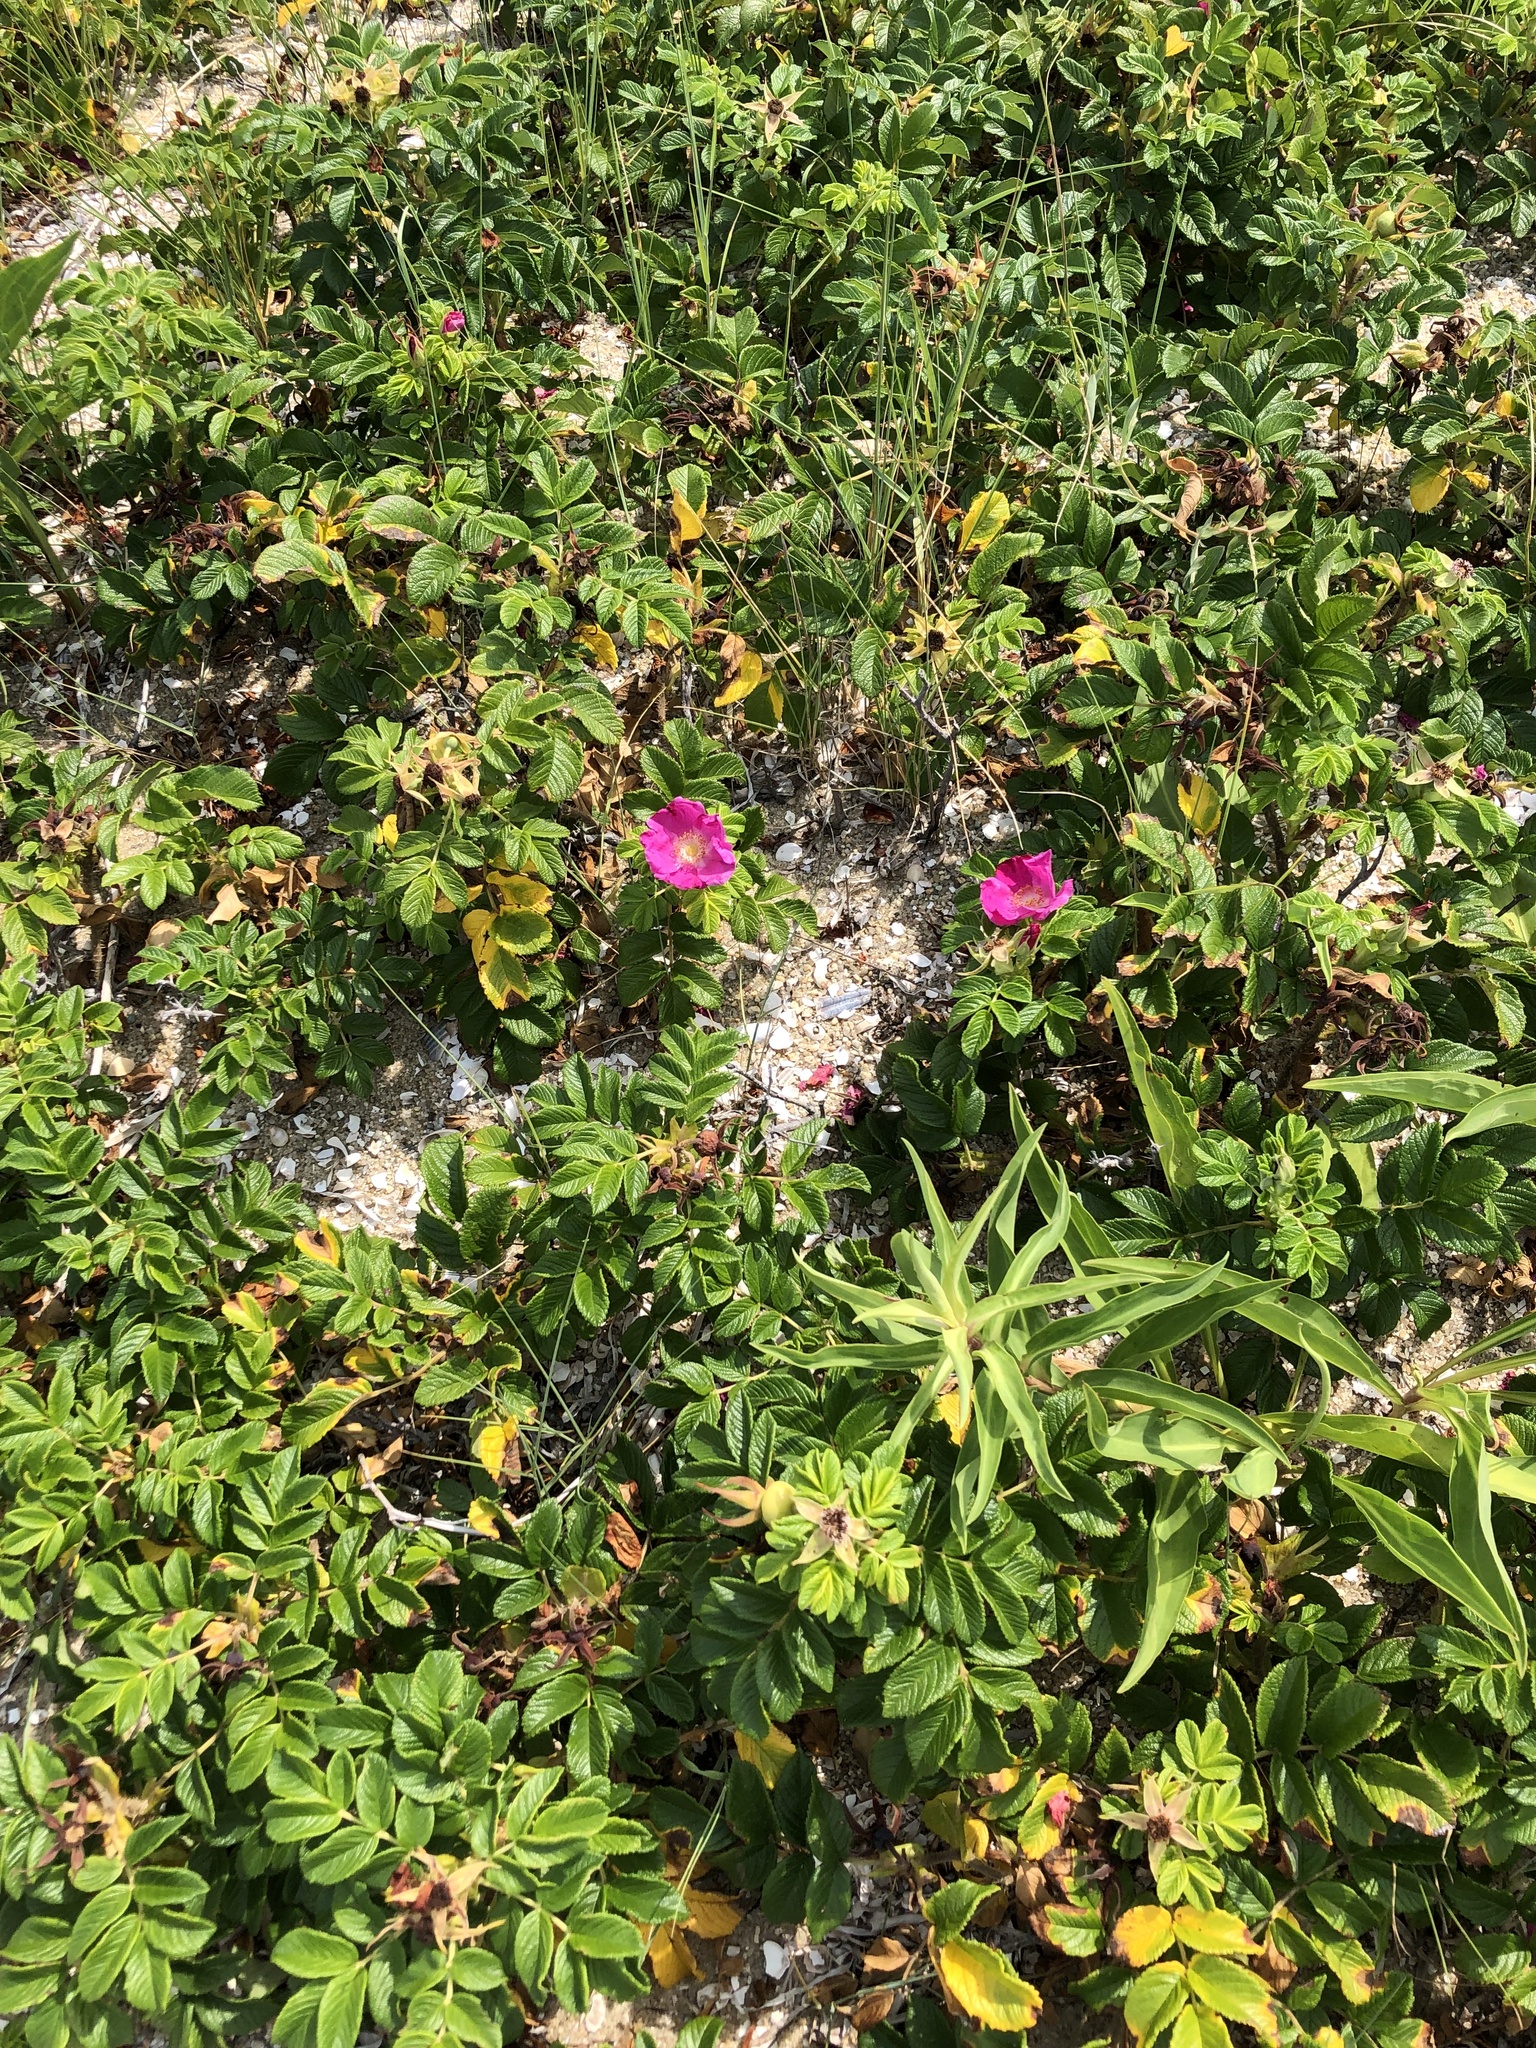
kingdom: Plantae
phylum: Tracheophyta
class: Magnoliopsida
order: Rosales
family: Rosaceae
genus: Rosa
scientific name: Rosa rugosa
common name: Japanese rose
